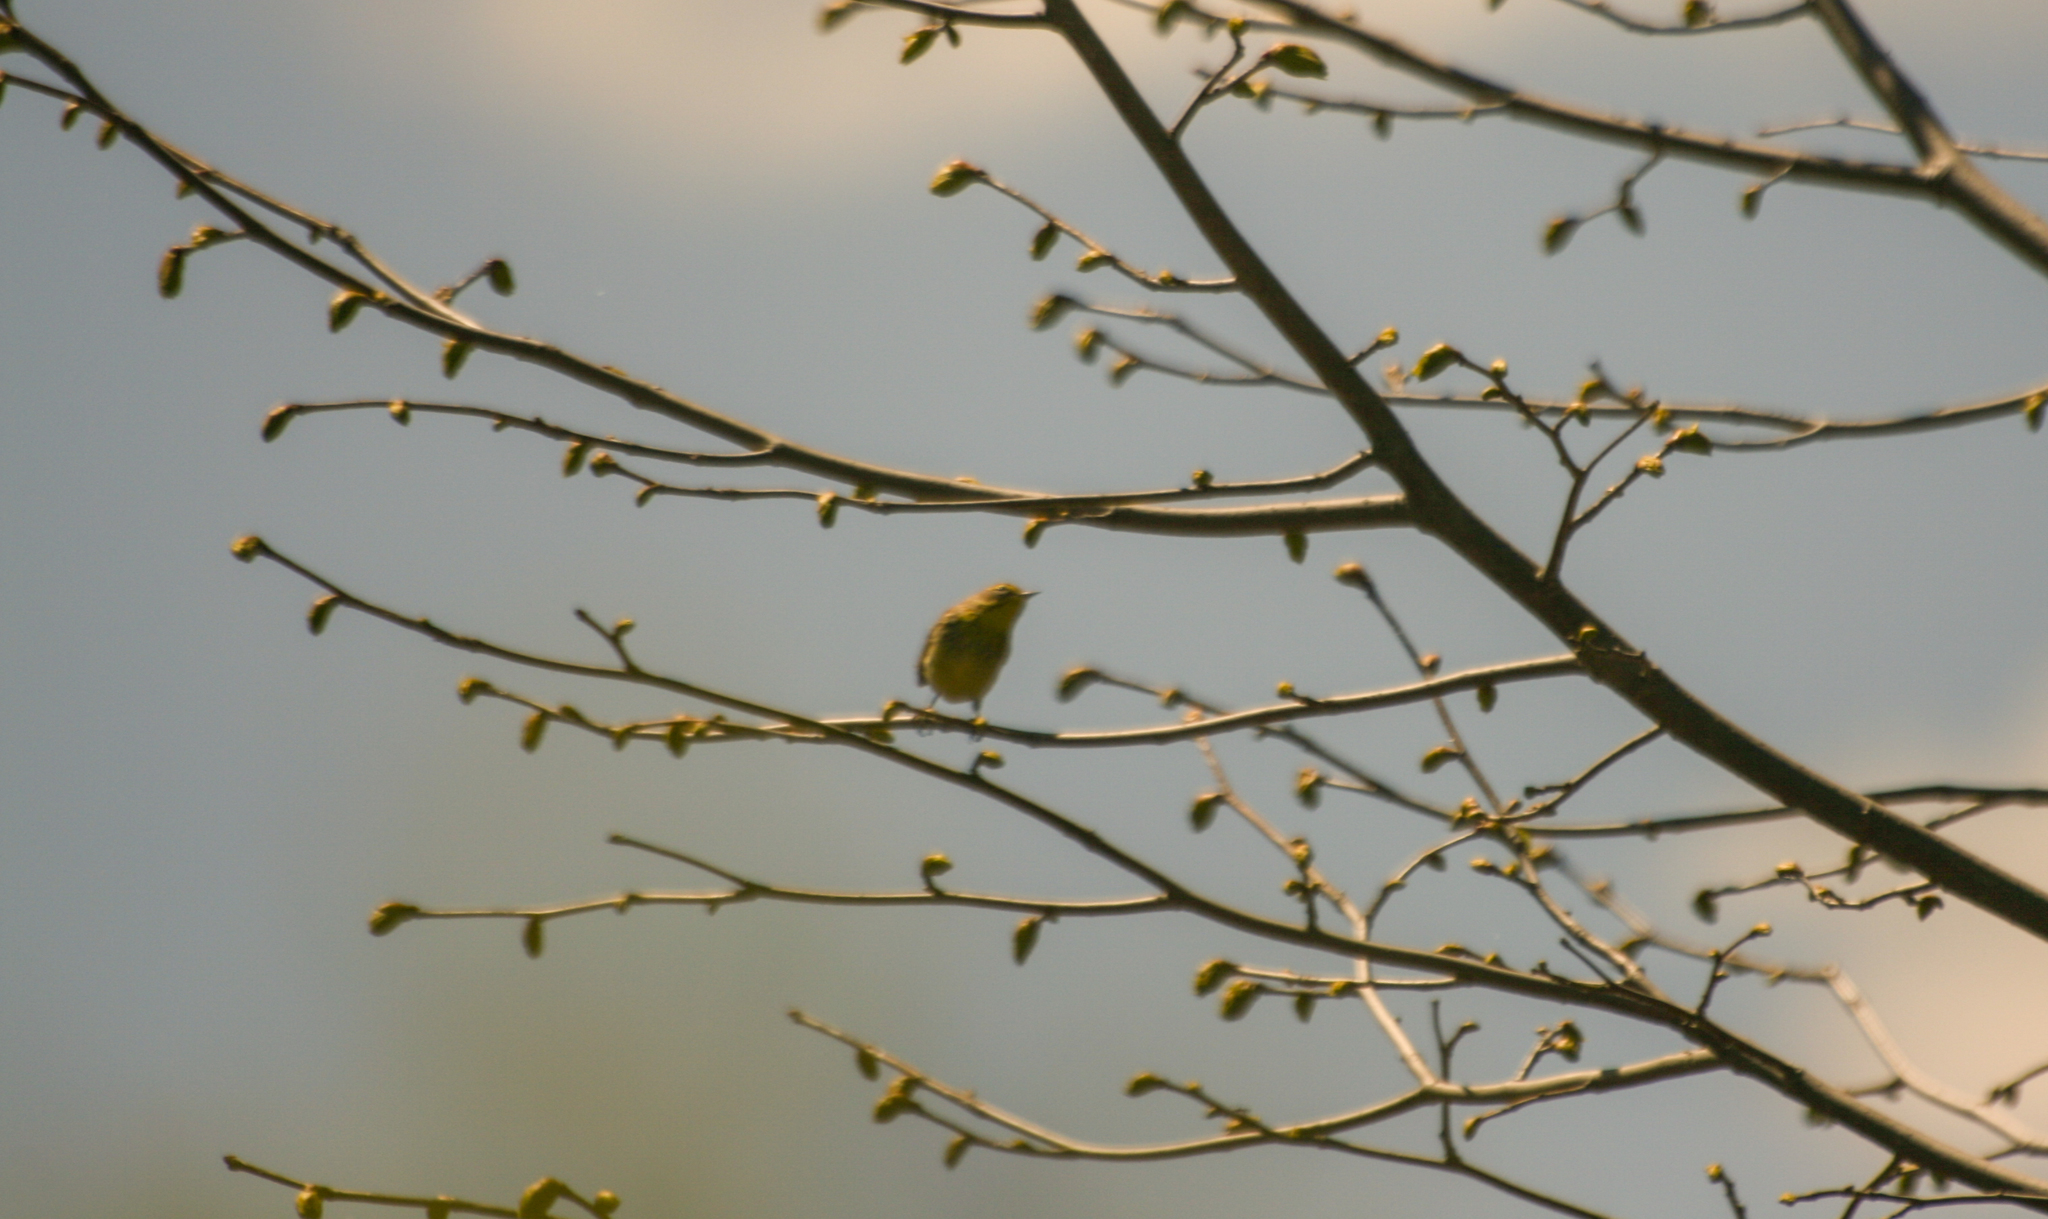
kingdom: Animalia
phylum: Chordata
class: Aves
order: Passeriformes
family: Parulidae
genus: Setophaga
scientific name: Setophaga palmarum
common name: Palm warbler
